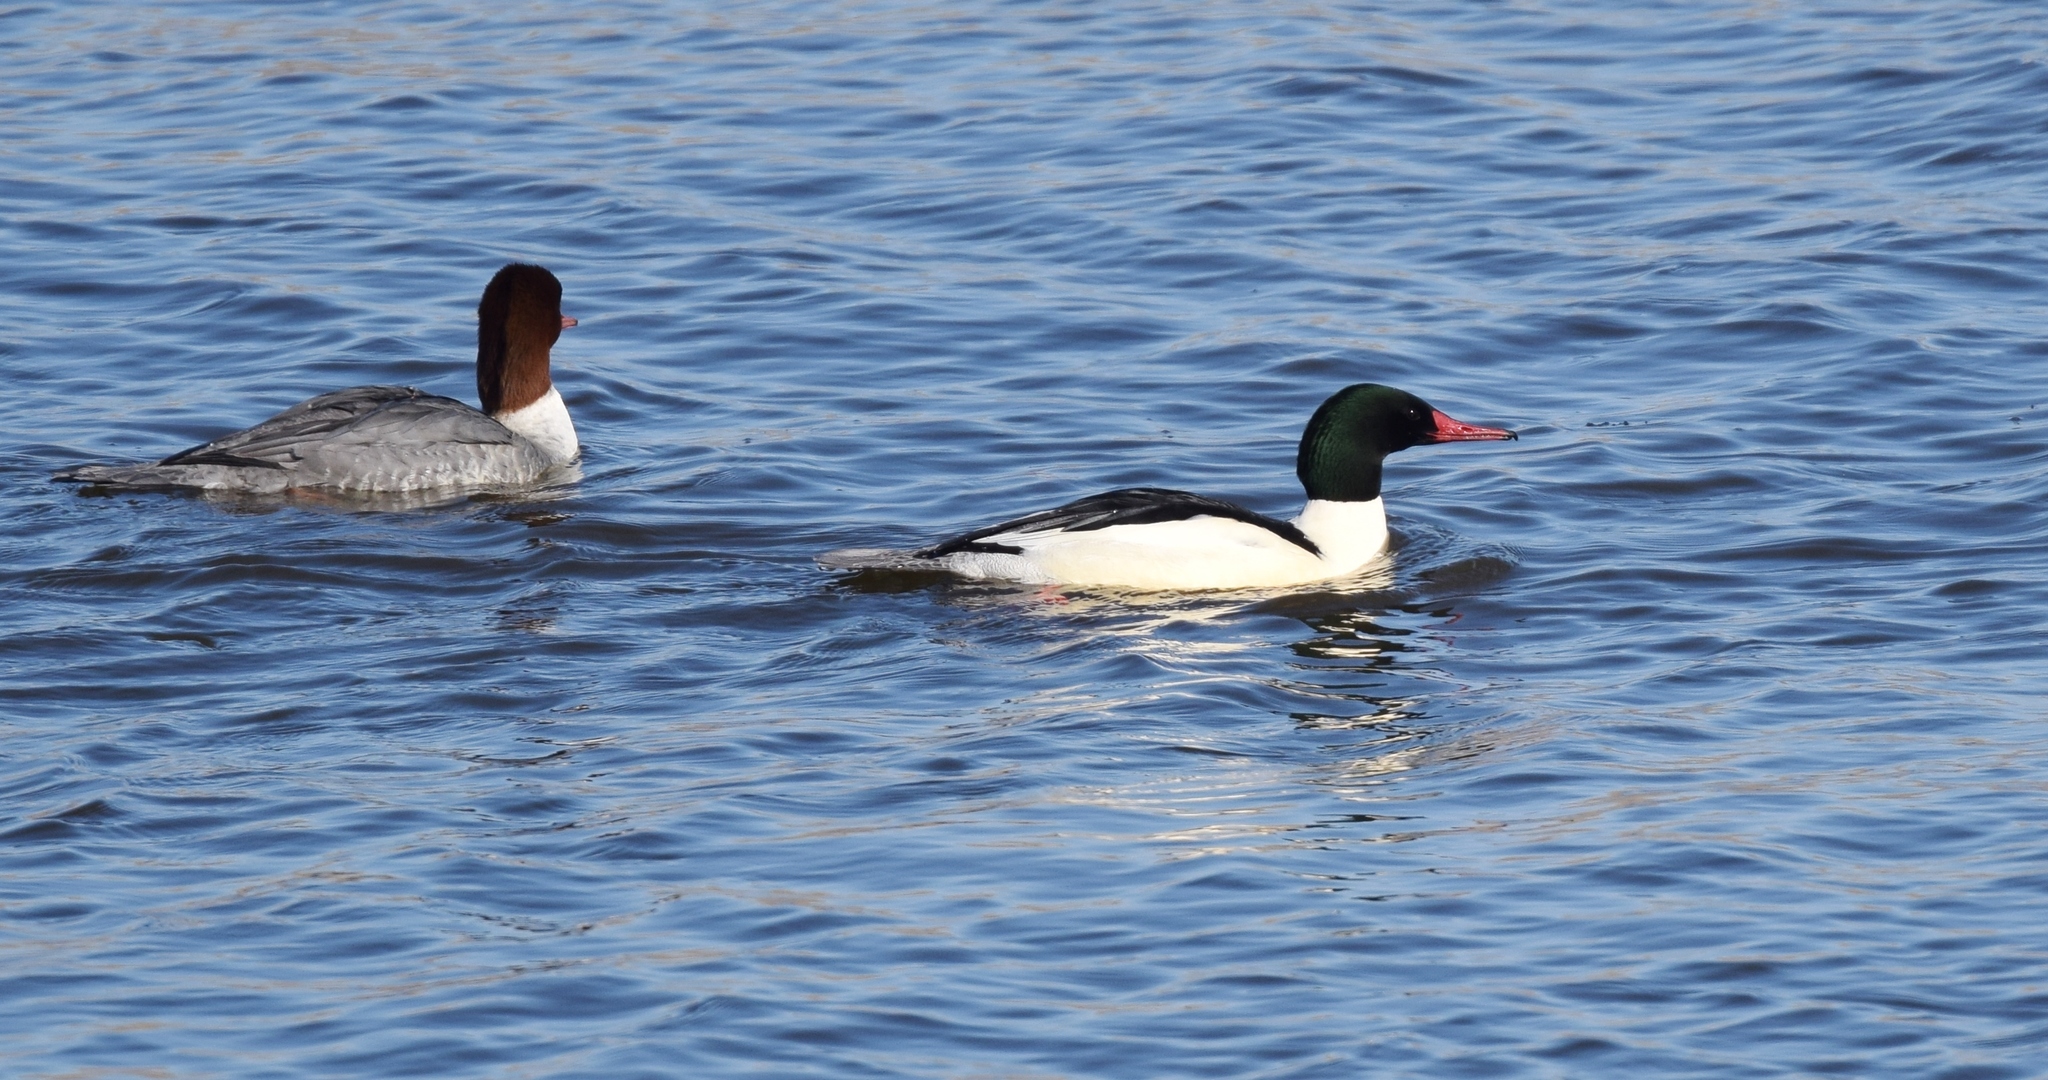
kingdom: Animalia
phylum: Chordata
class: Aves
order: Anseriformes
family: Anatidae
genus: Mergus
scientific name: Mergus merganser
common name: Common merganser
